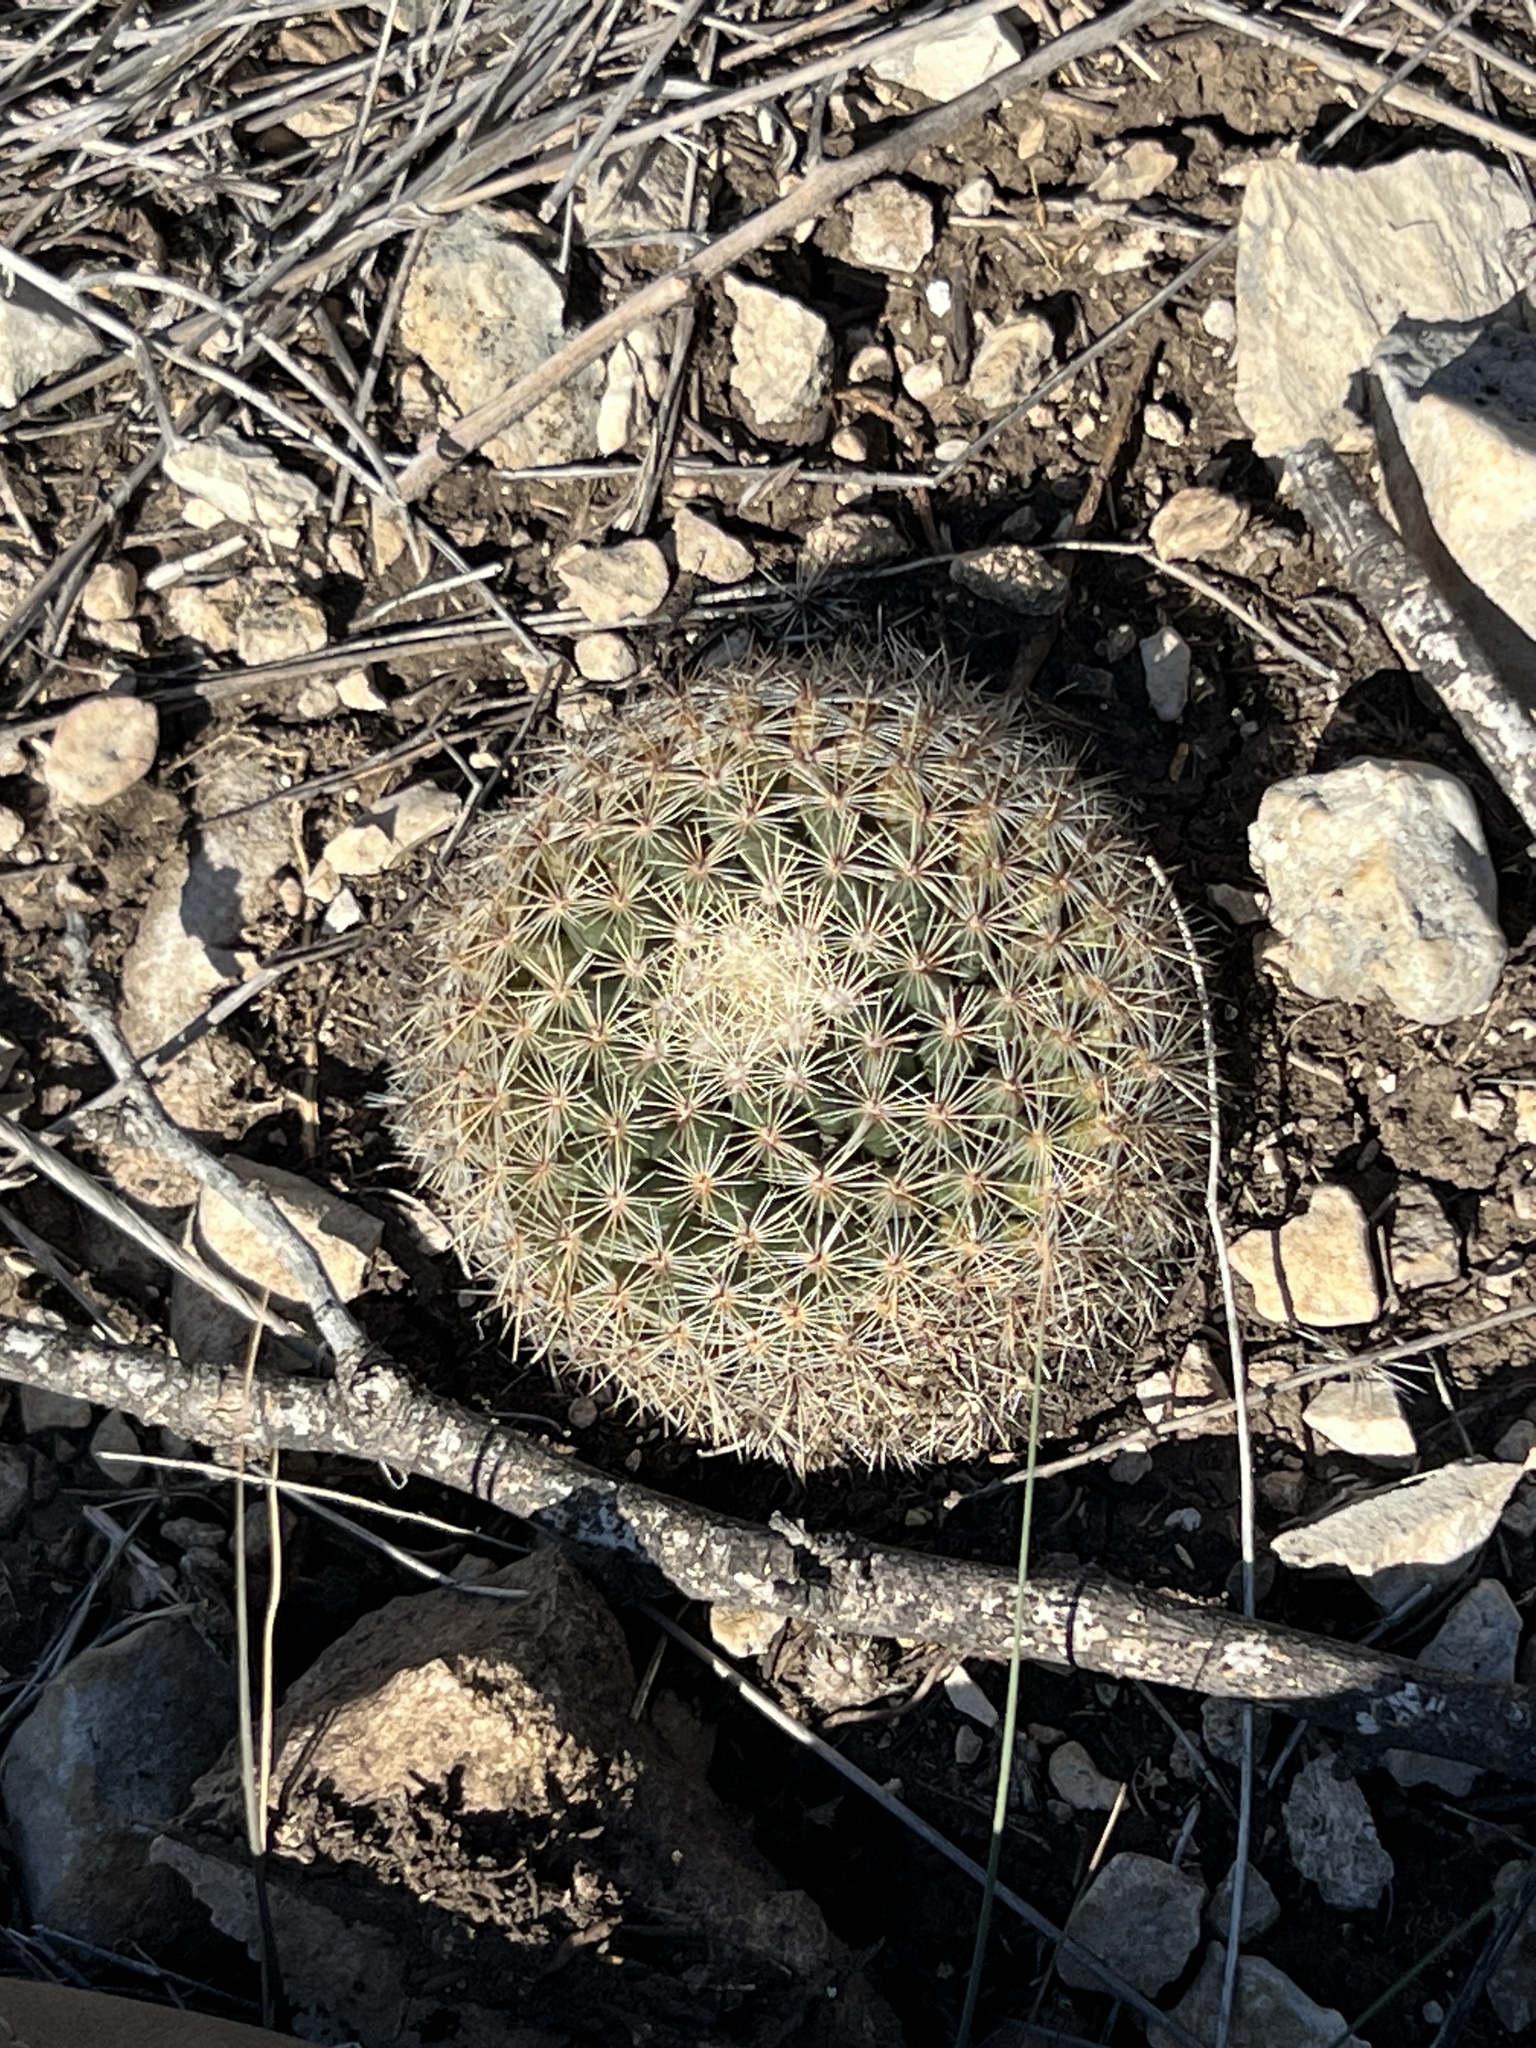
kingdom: Plantae
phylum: Tracheophyta
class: Magnoliopsida
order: Caryophyllales
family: Cactaceae
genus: Mammillaria
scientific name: Mammillaria heyderi
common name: Little nipple cactus
